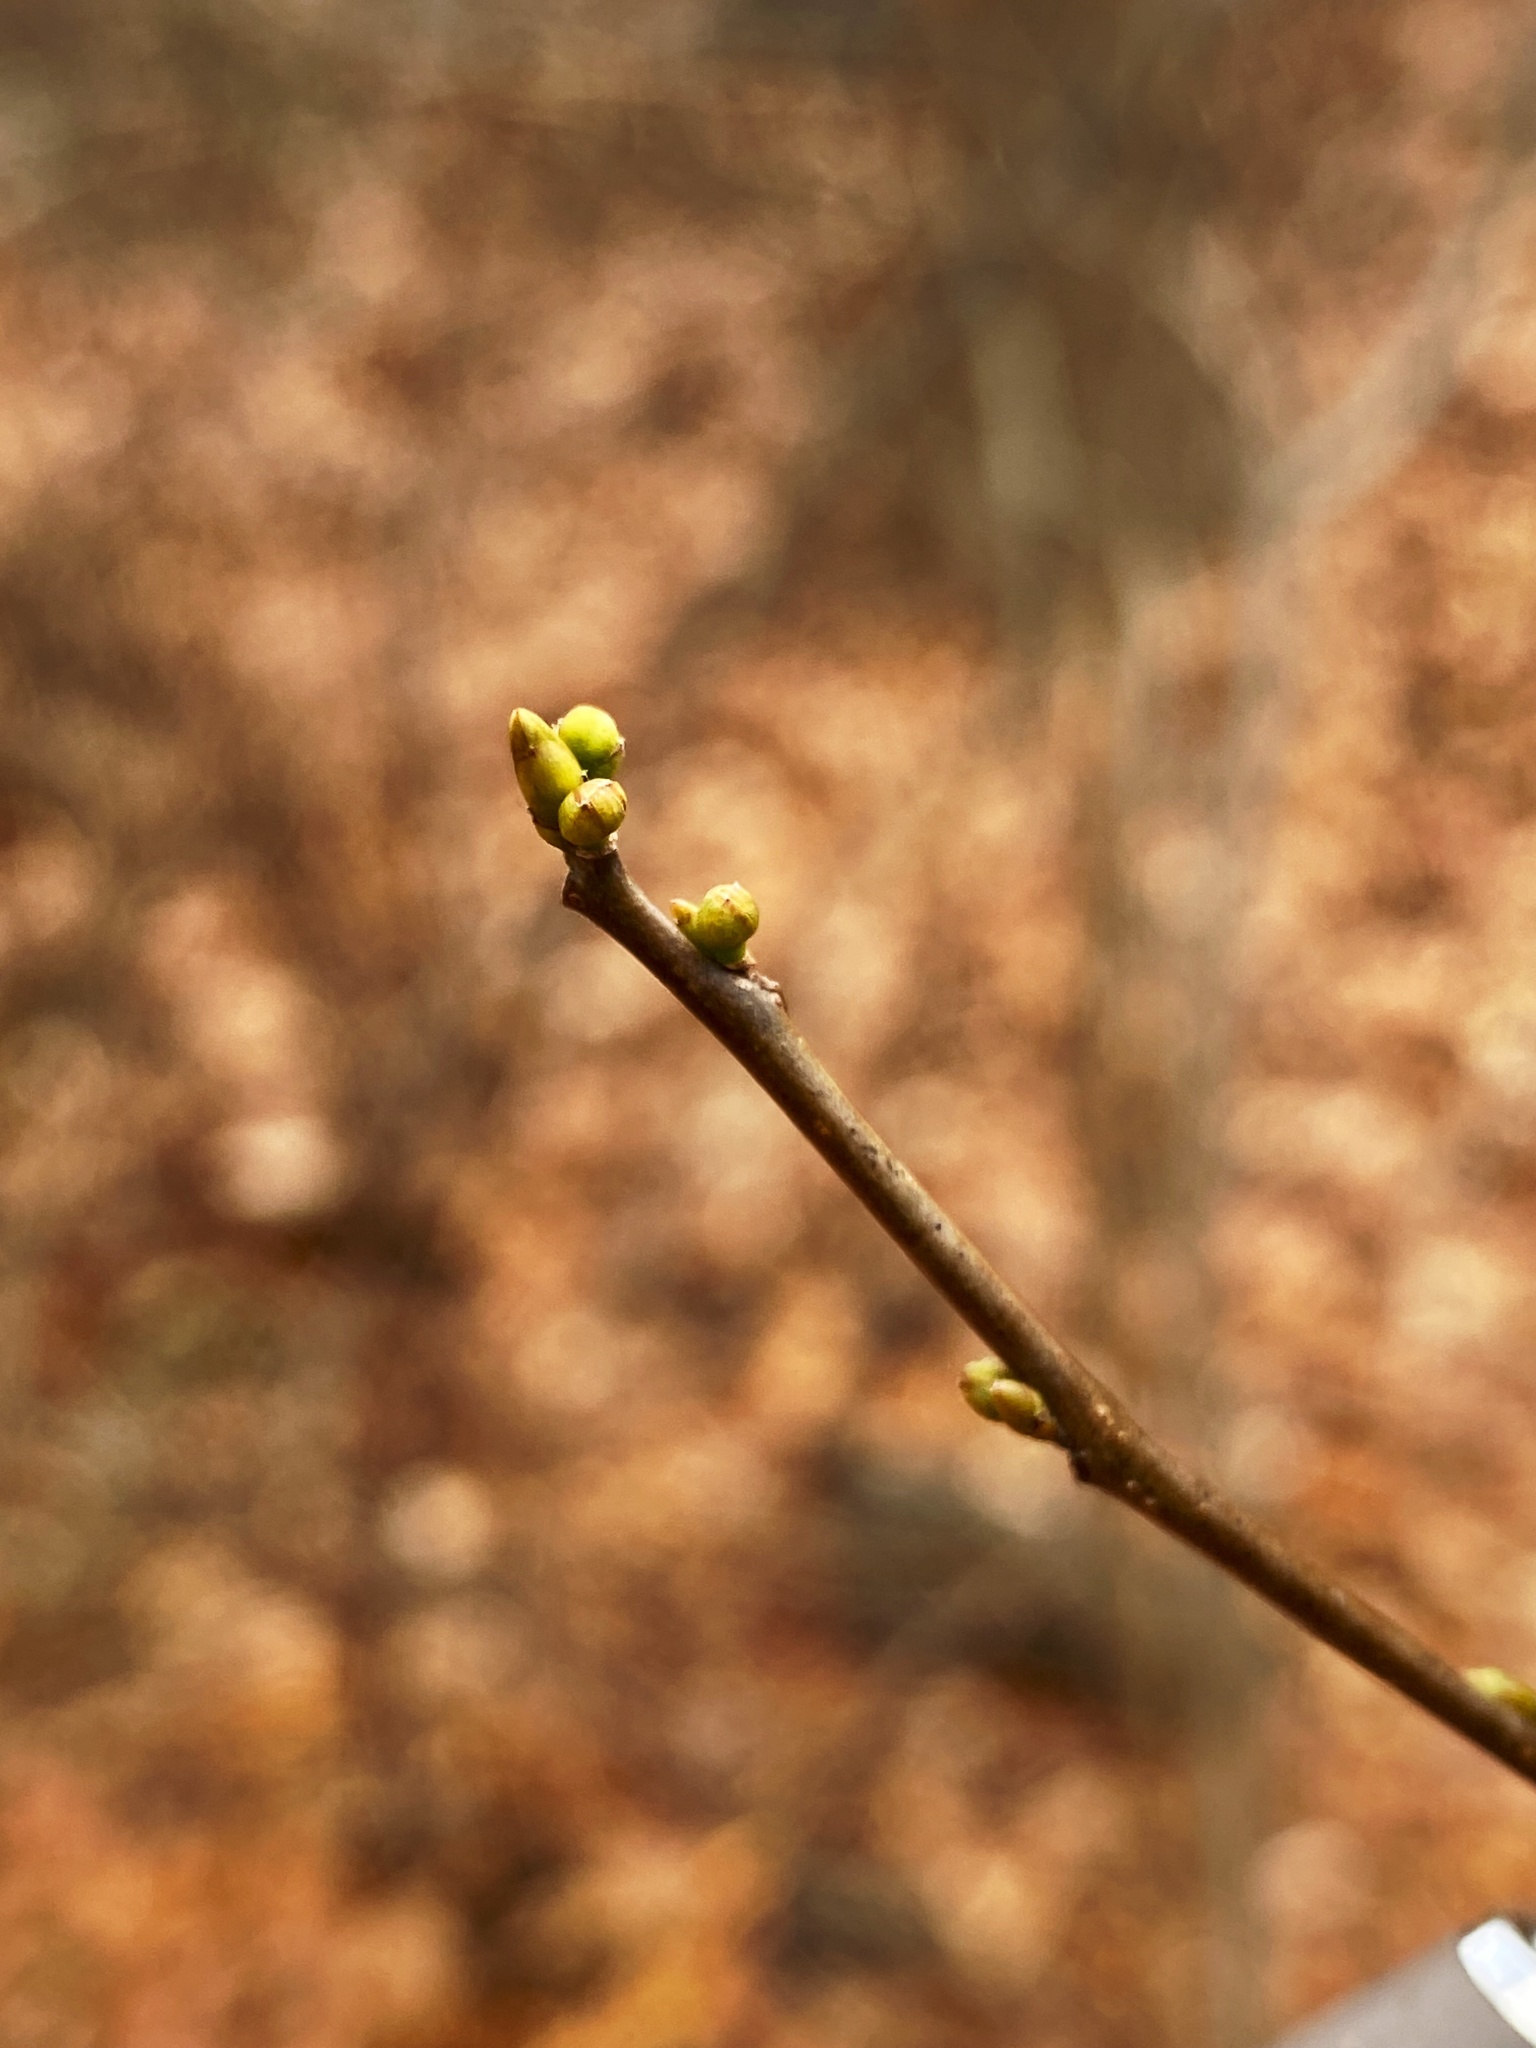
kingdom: Plantae
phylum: Tracheophyta
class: Magnoliopsida
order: Laurales
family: Lauraceae
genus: Lindera
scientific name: Lindera benzoin
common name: Spicebush
